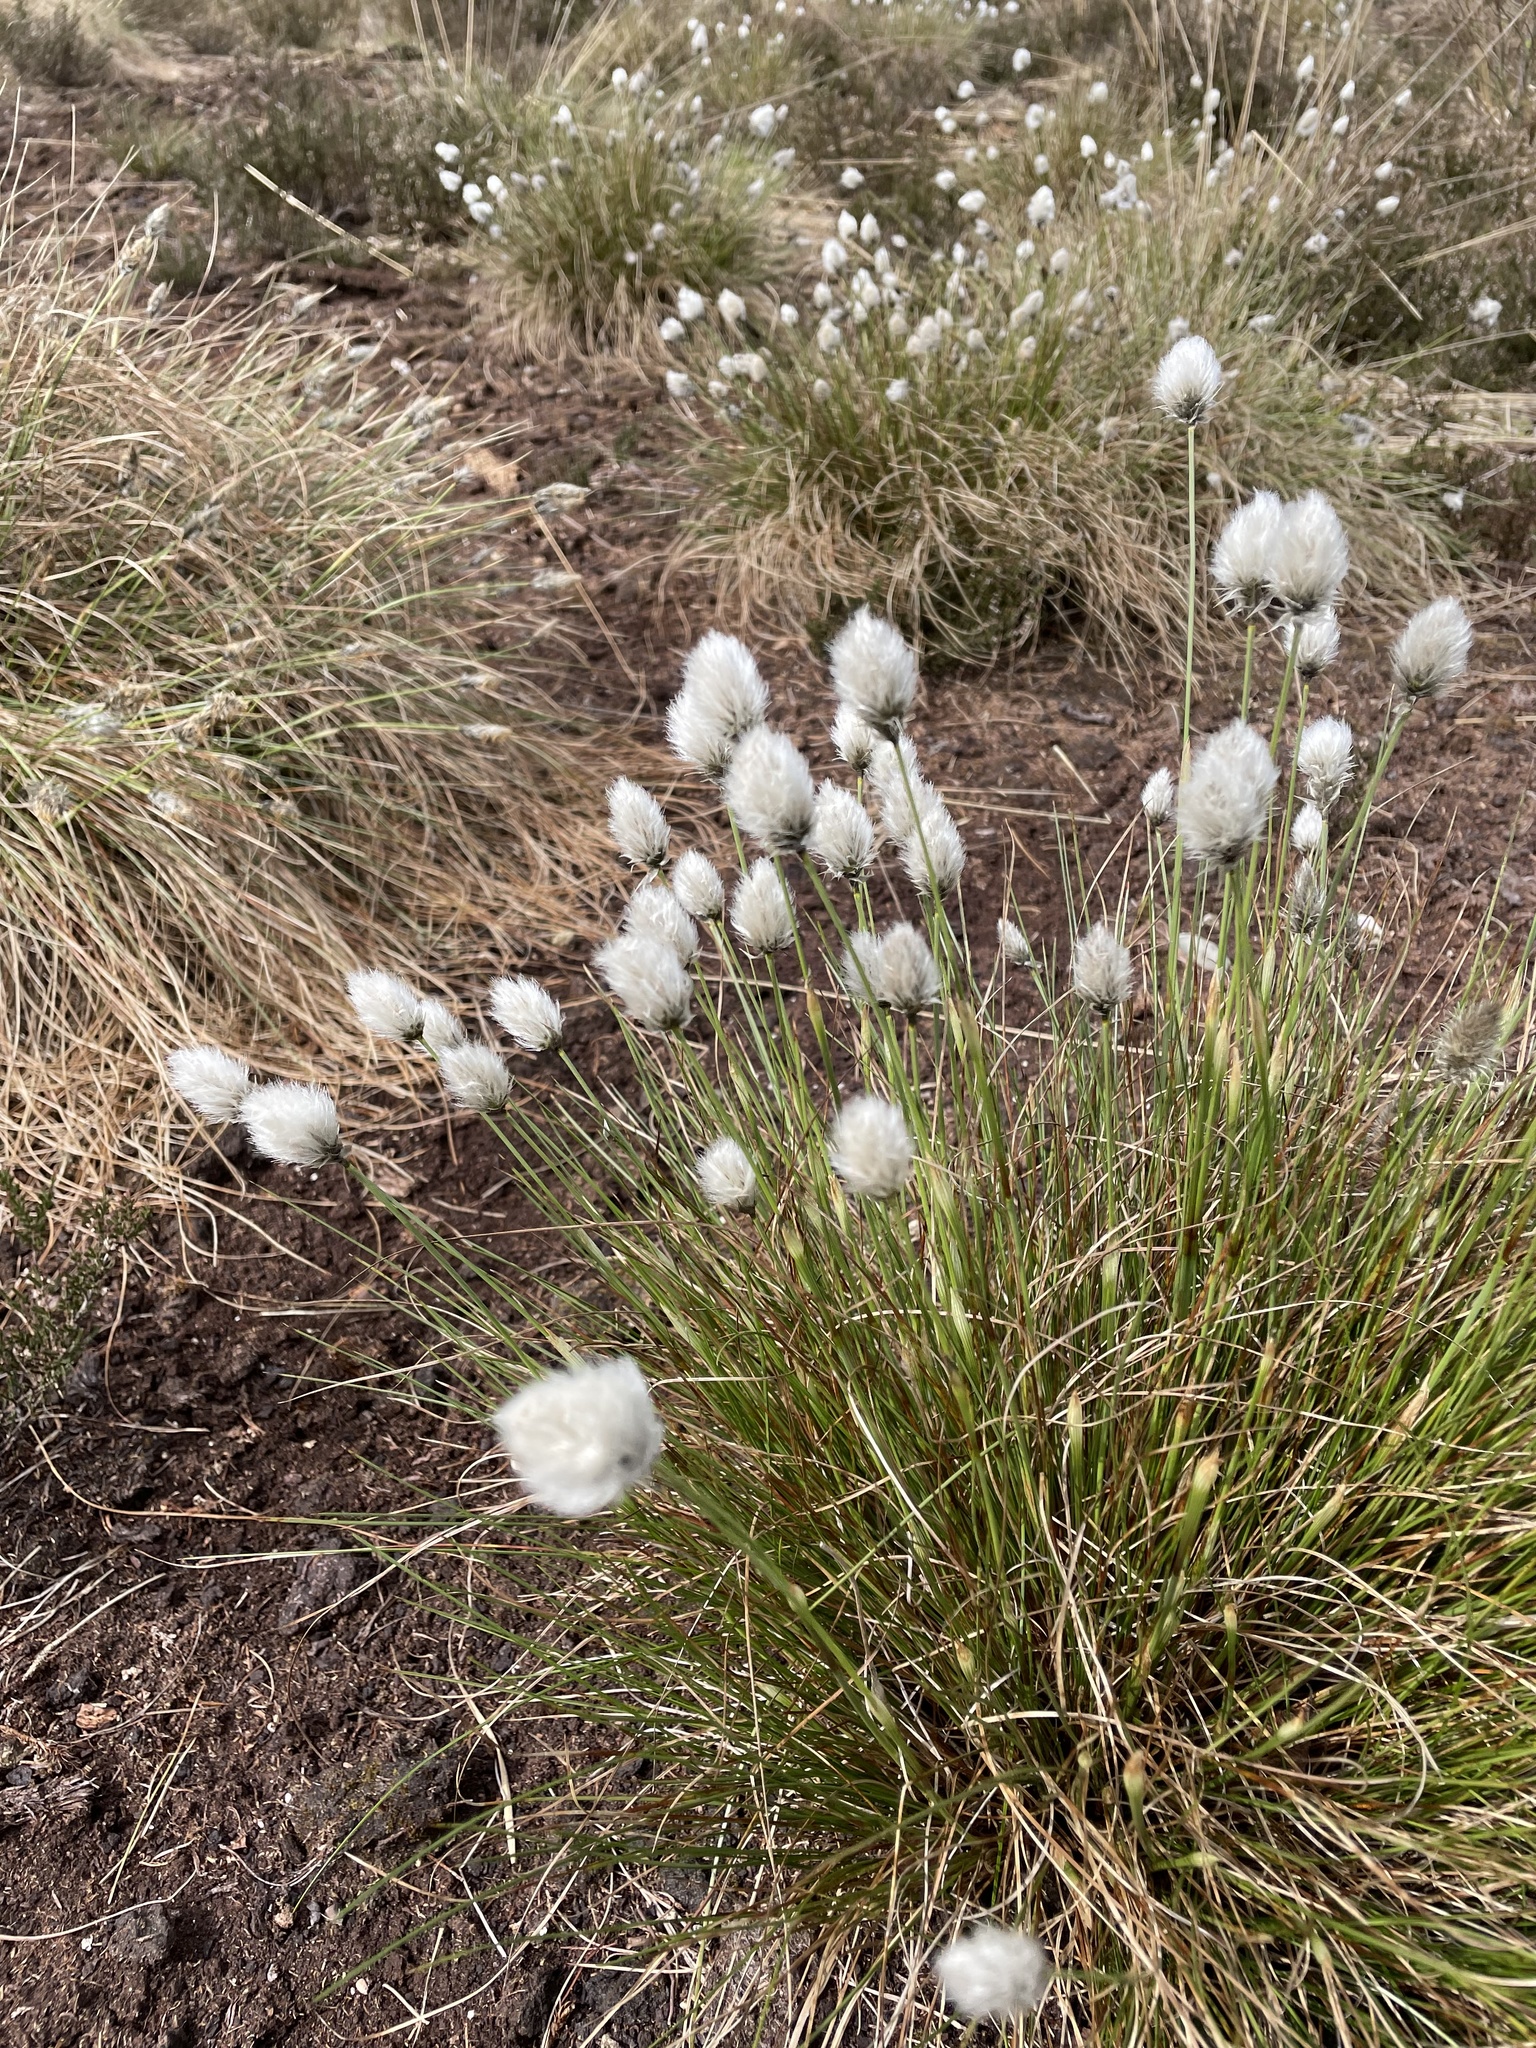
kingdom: Plantae
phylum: Tracheophyta
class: Liliopsida
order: Poales
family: Cyperaceae
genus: Eriophorum
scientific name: Eriophorum vaginatum
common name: Hare's-tail cottongrass
